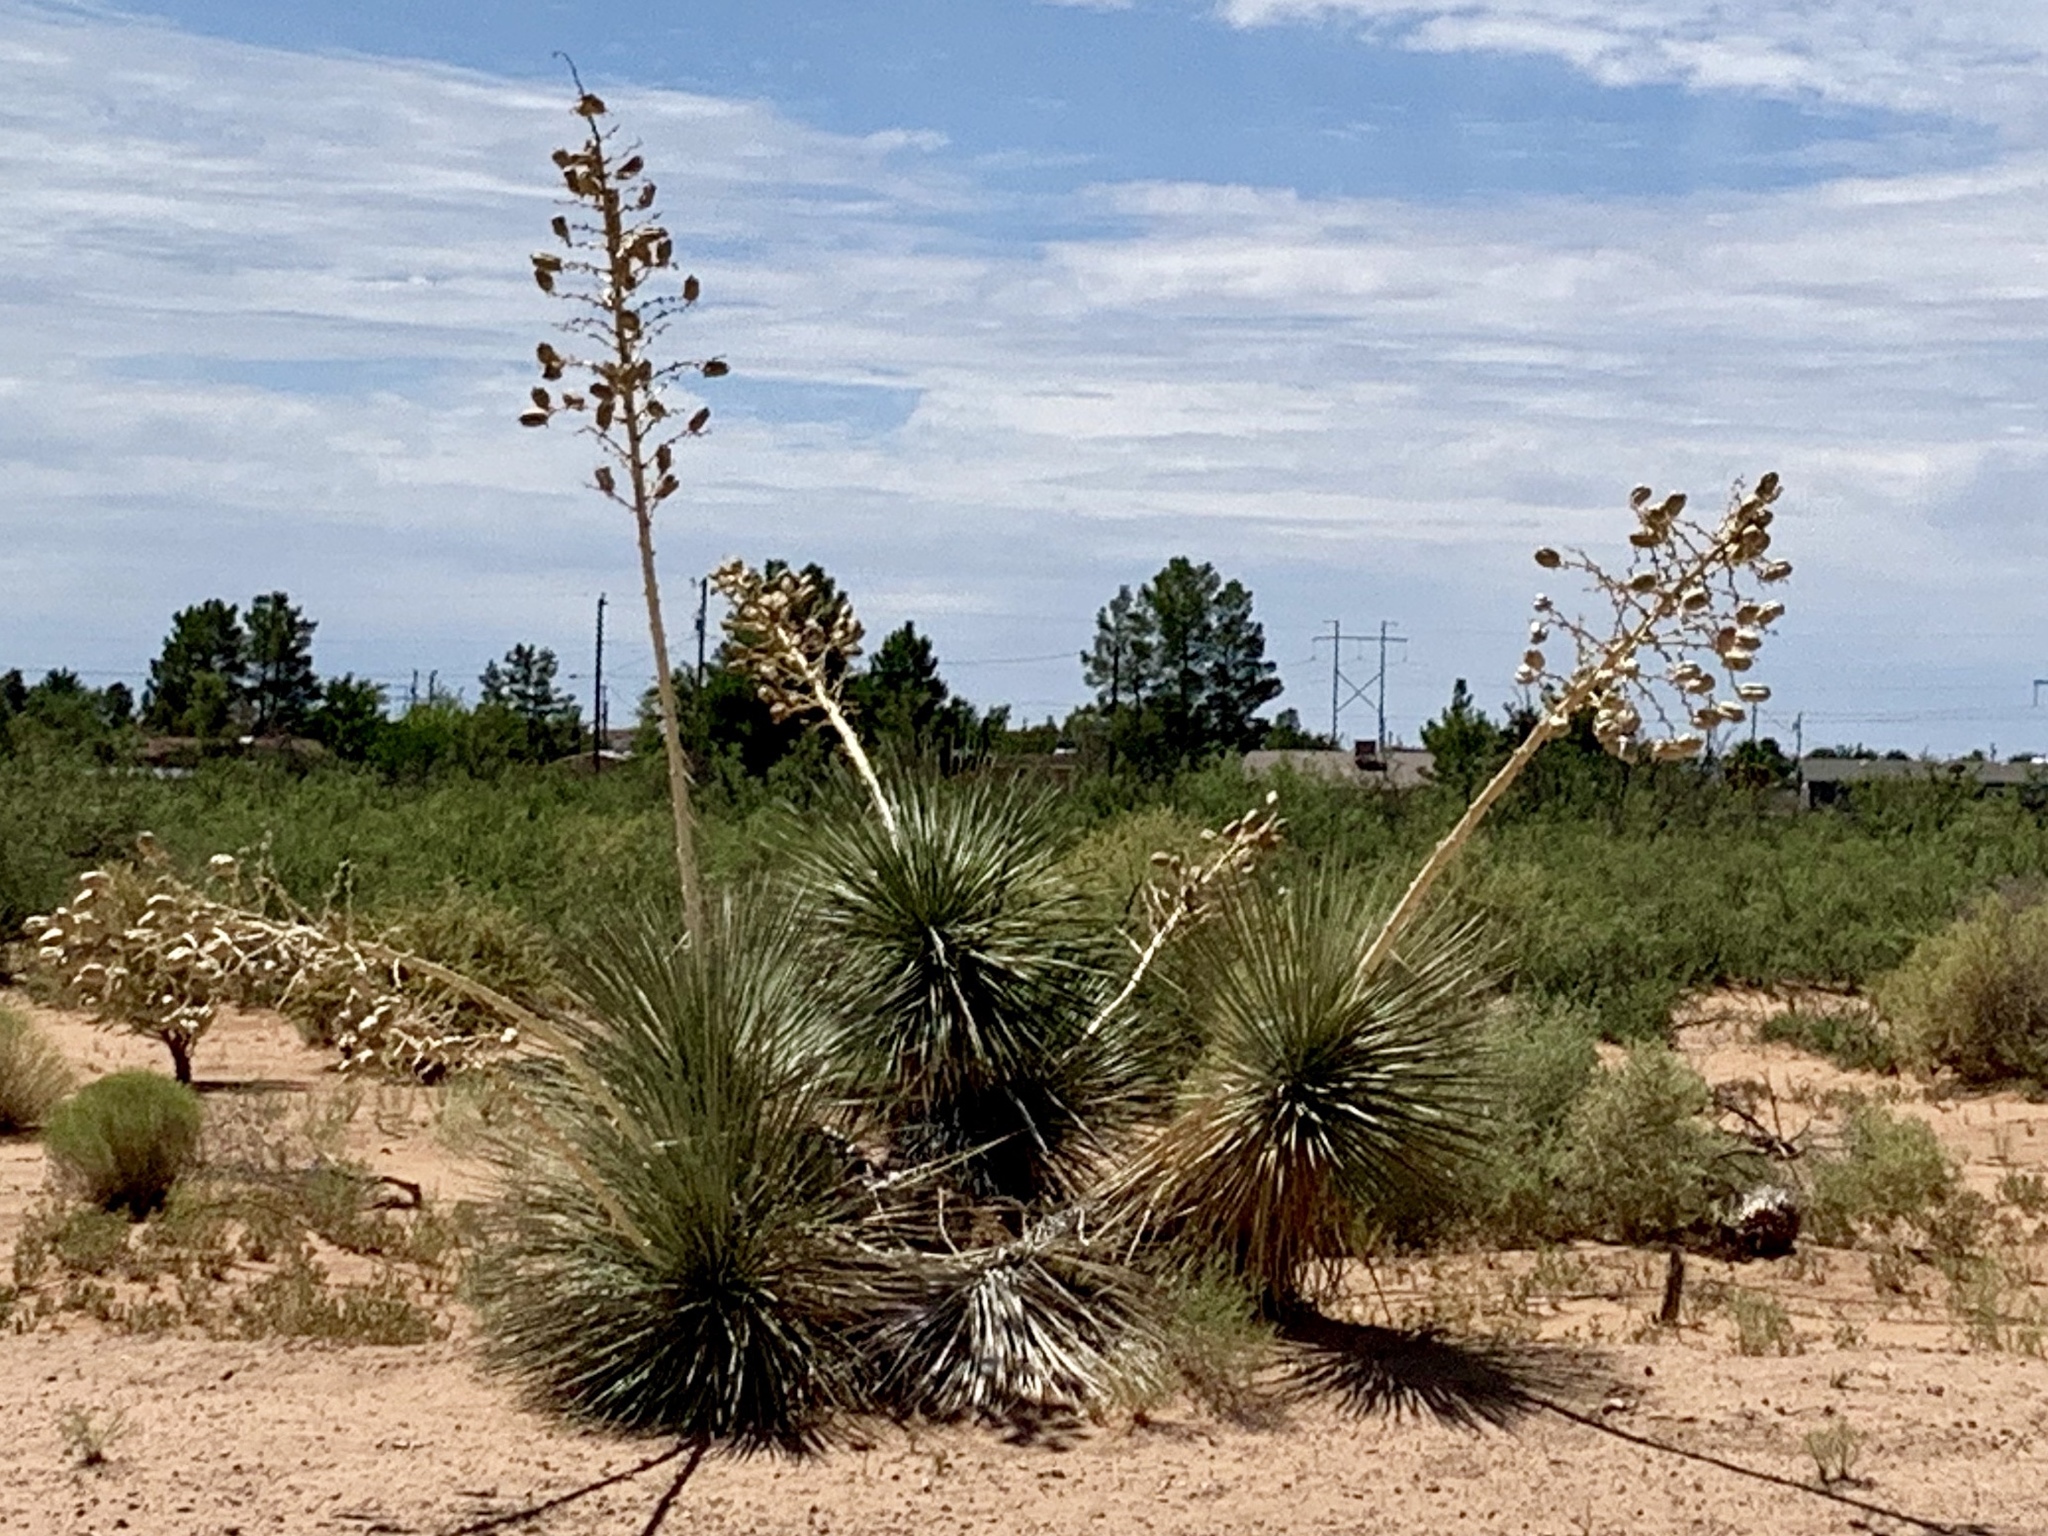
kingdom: Plantae
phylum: Tracheophyta
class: Liliopsida
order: Asparagales
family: Asparagaceae
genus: Yucca
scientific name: Yucca elata
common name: Palmella
